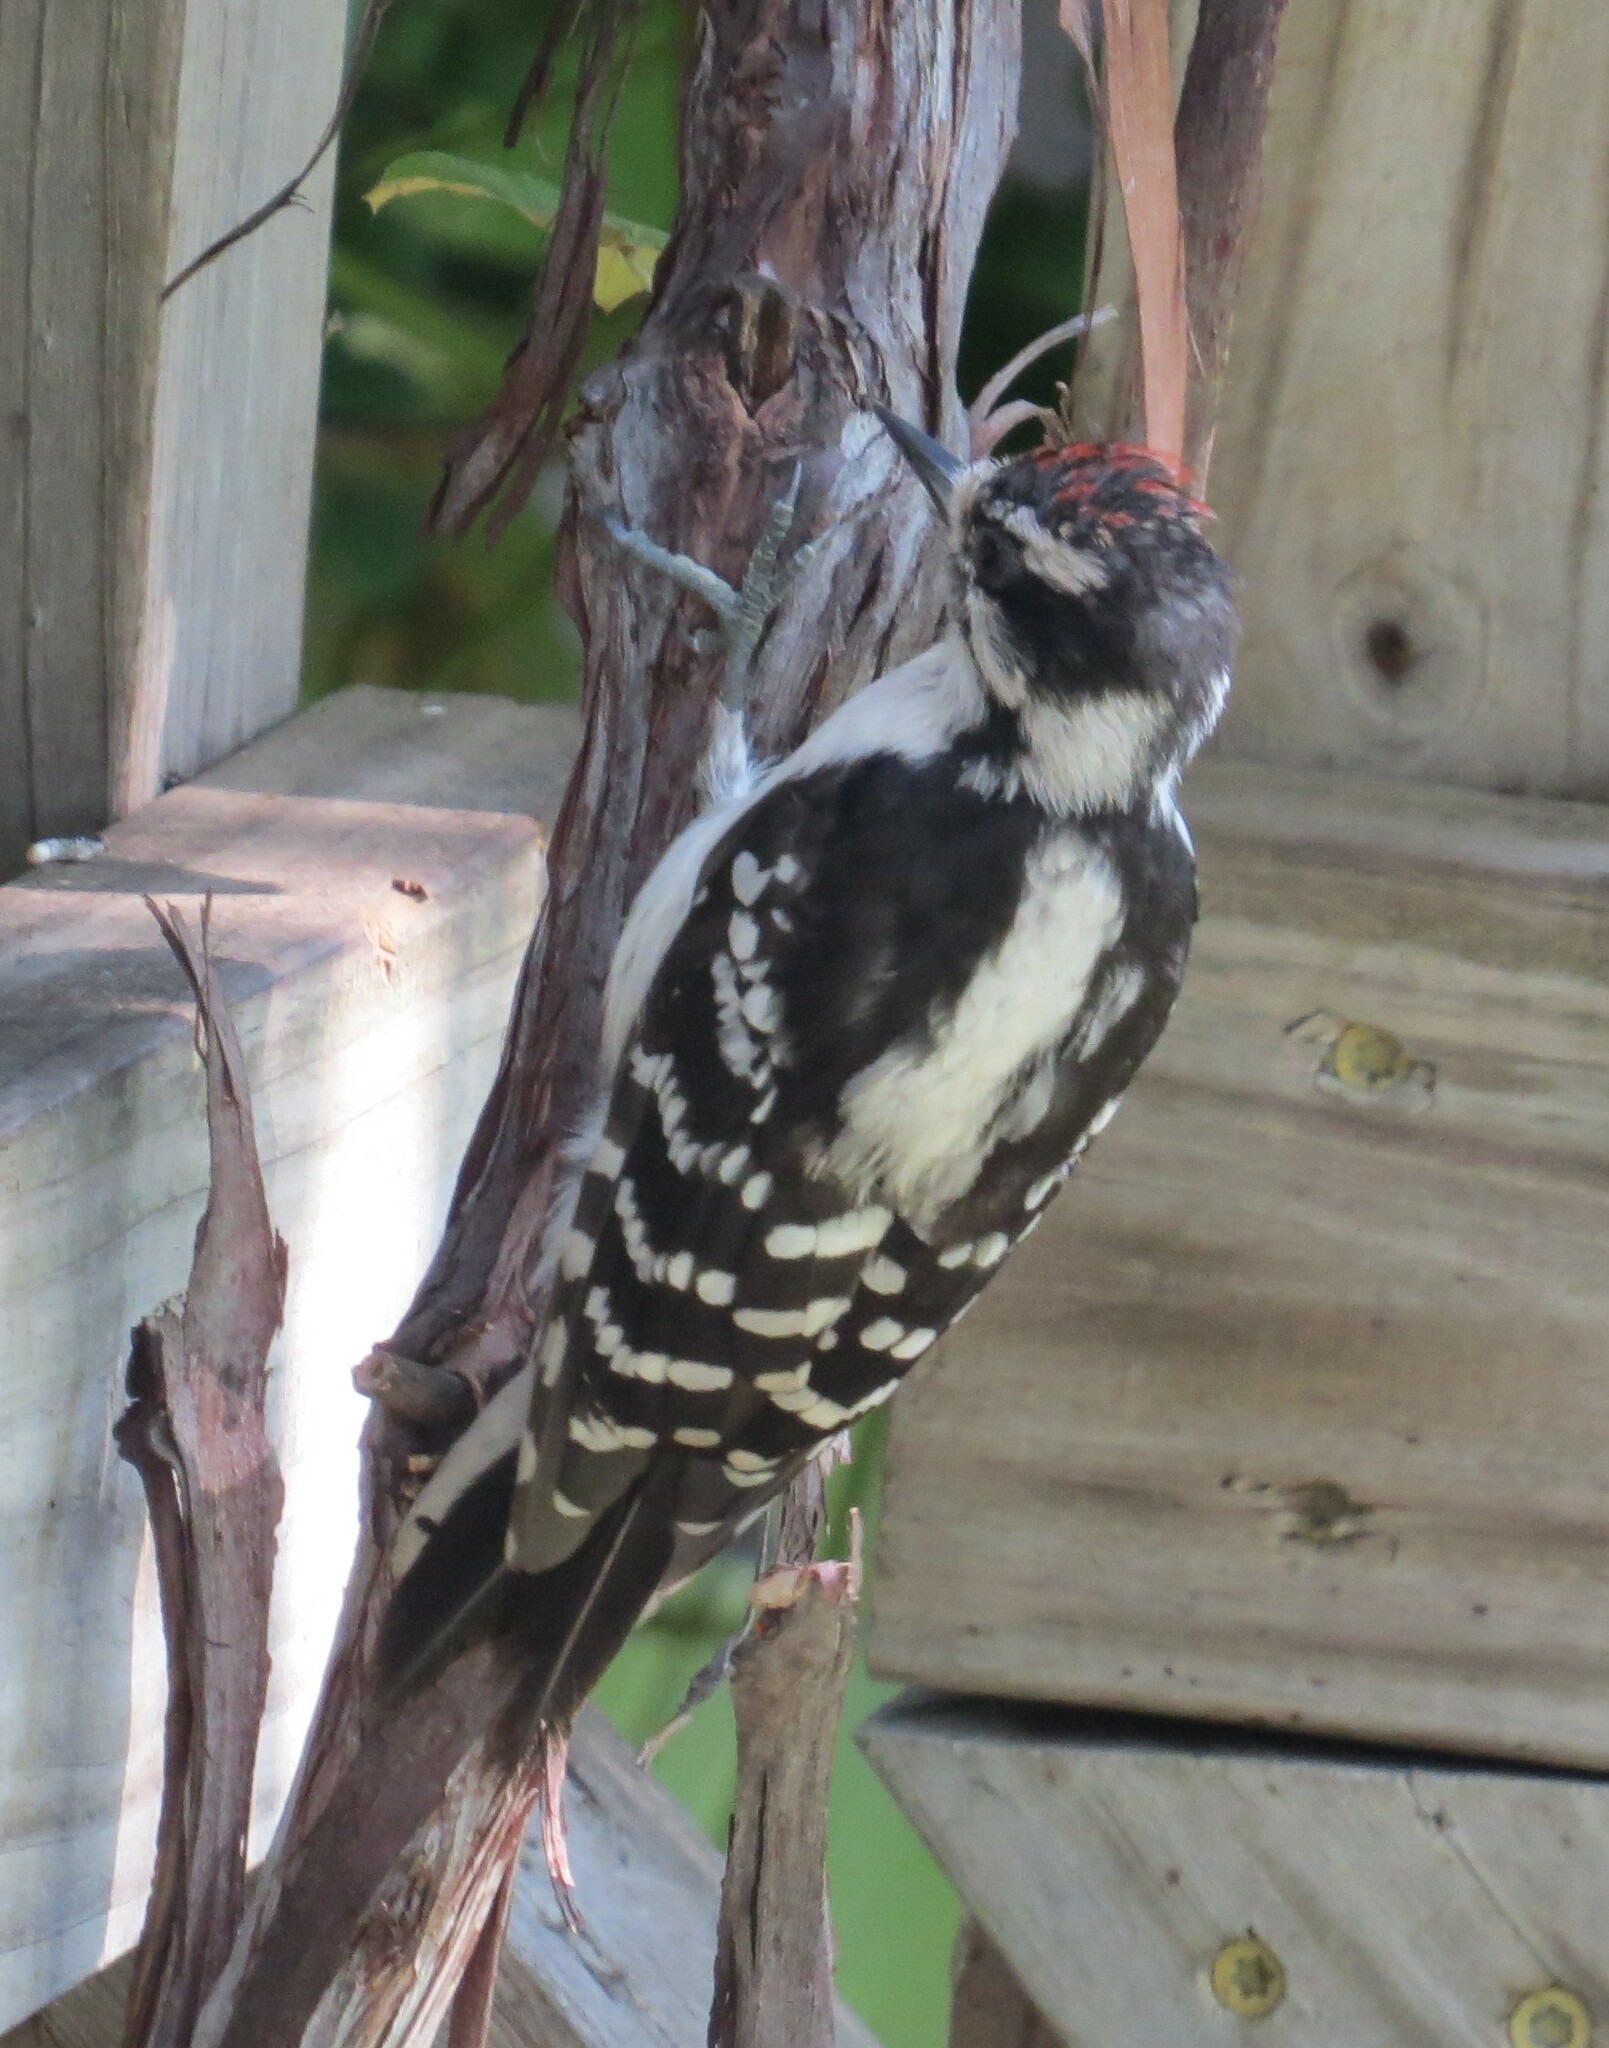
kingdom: Animalia
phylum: Chordata
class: Aves
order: Piciformes
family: Picidae
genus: Dryobates
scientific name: Dryobates pubescens
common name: Downy woodpecker
